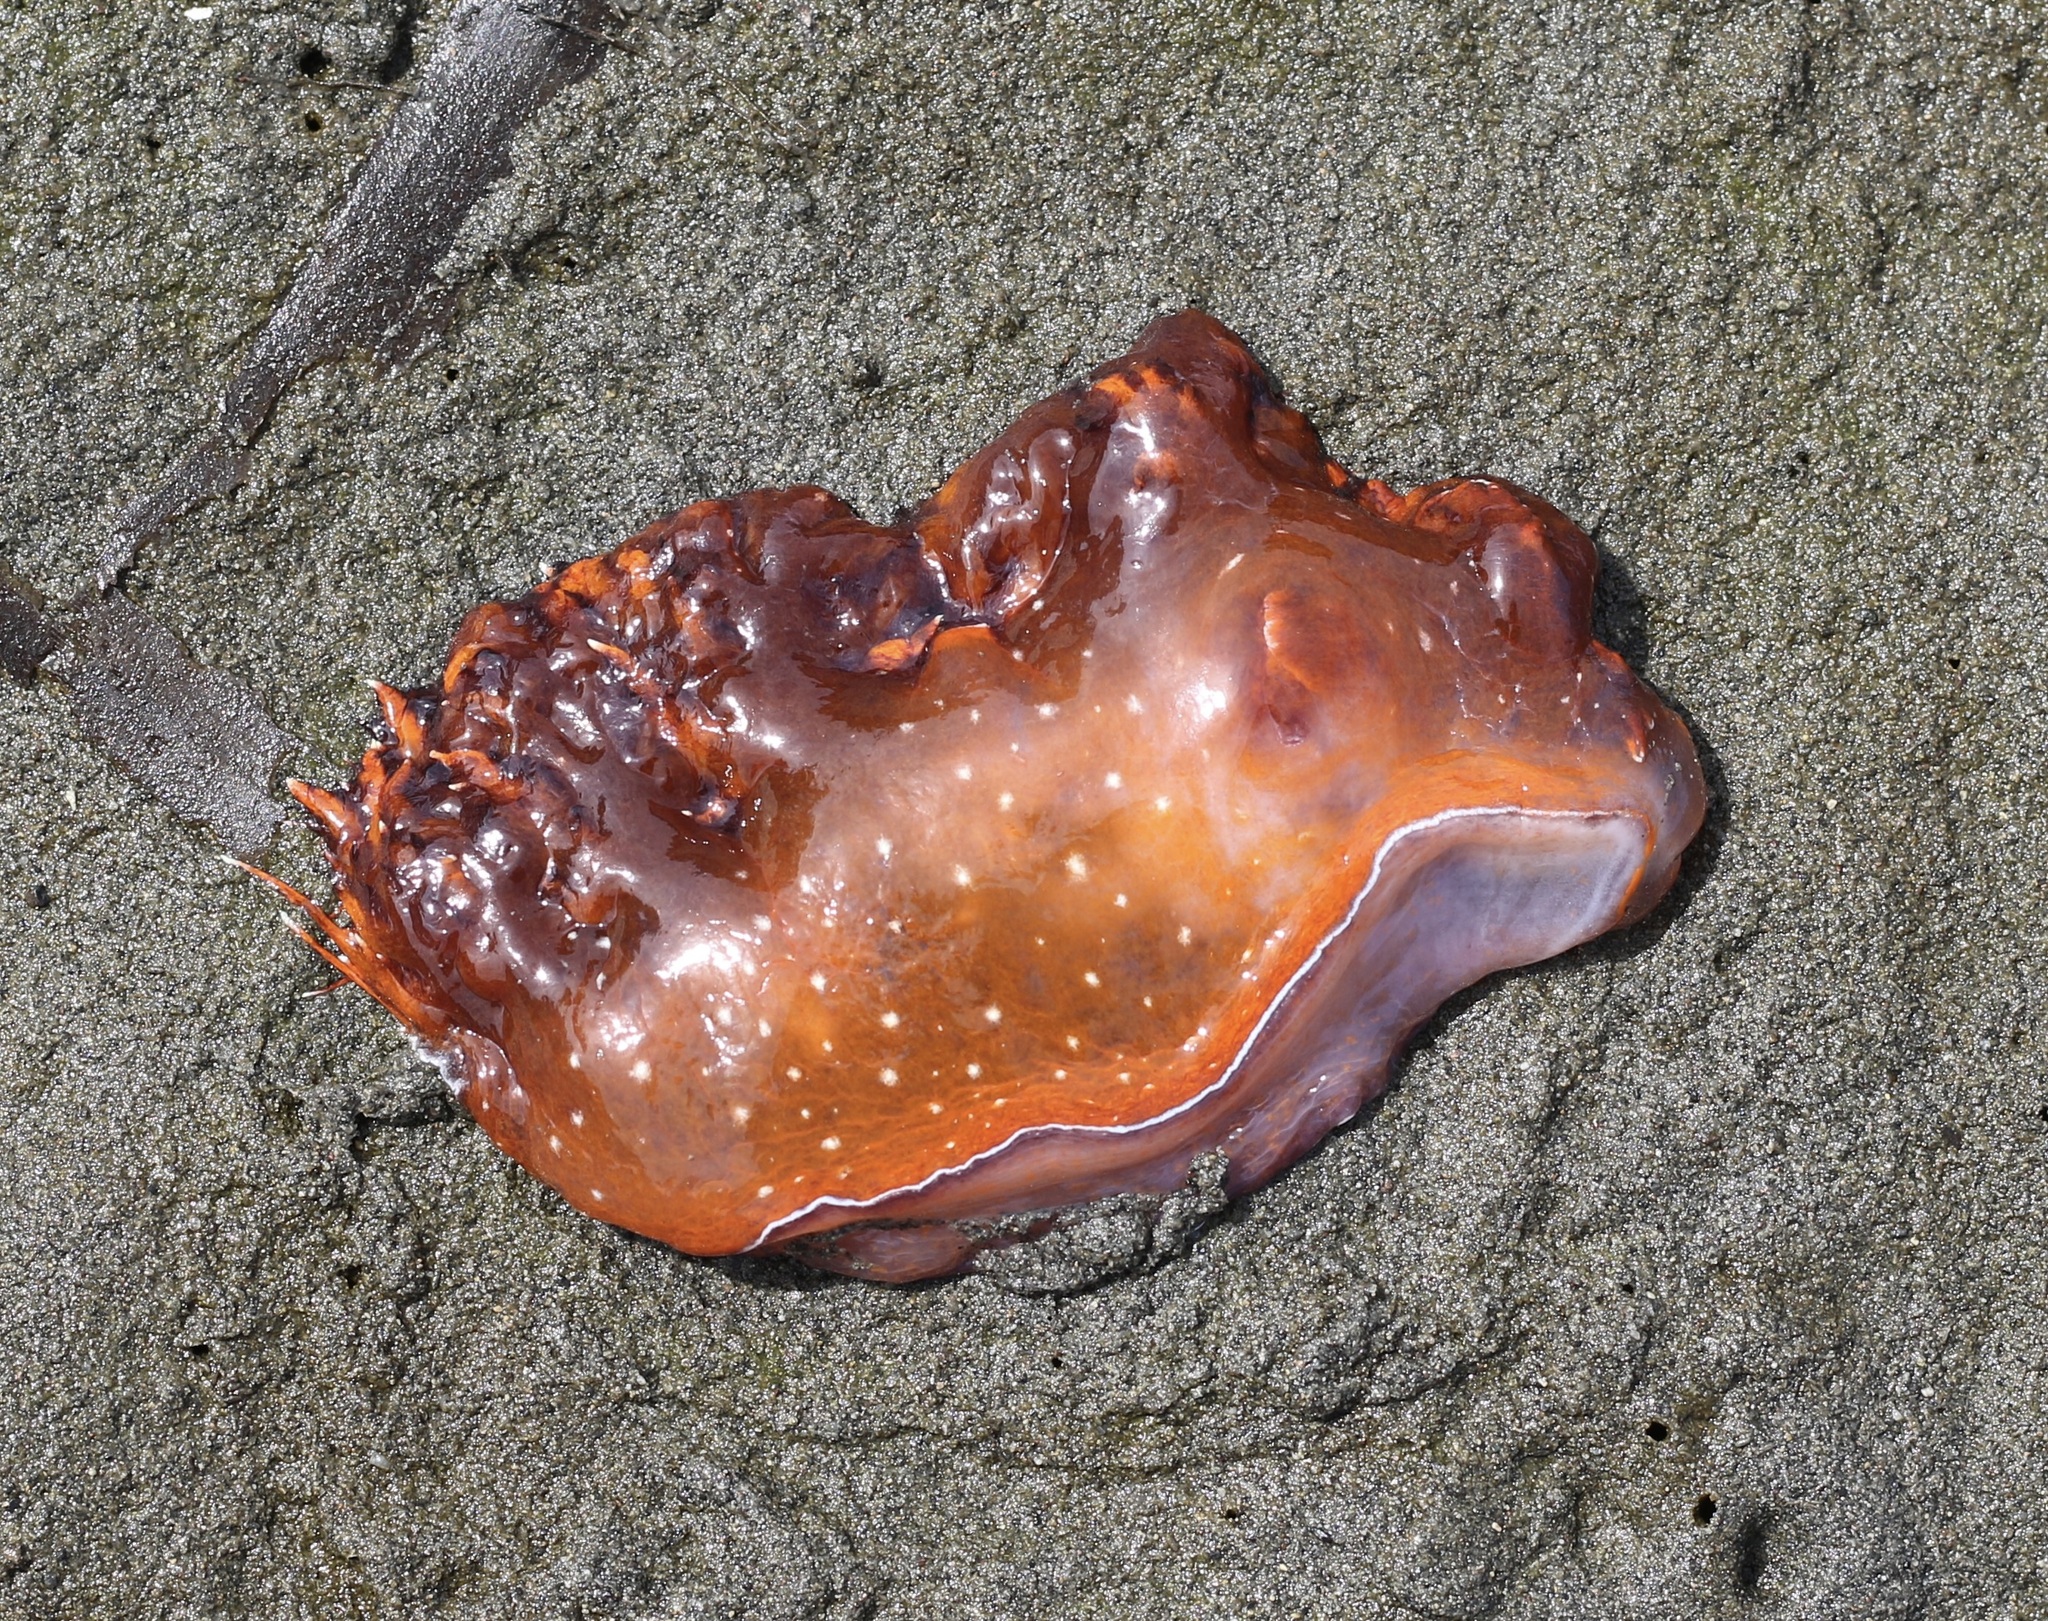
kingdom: Animalia
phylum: Mollusca
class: Gastropoda
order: Nudibranchia
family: Dendronotidae
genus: Dendronotus
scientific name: Dendronotus iris
